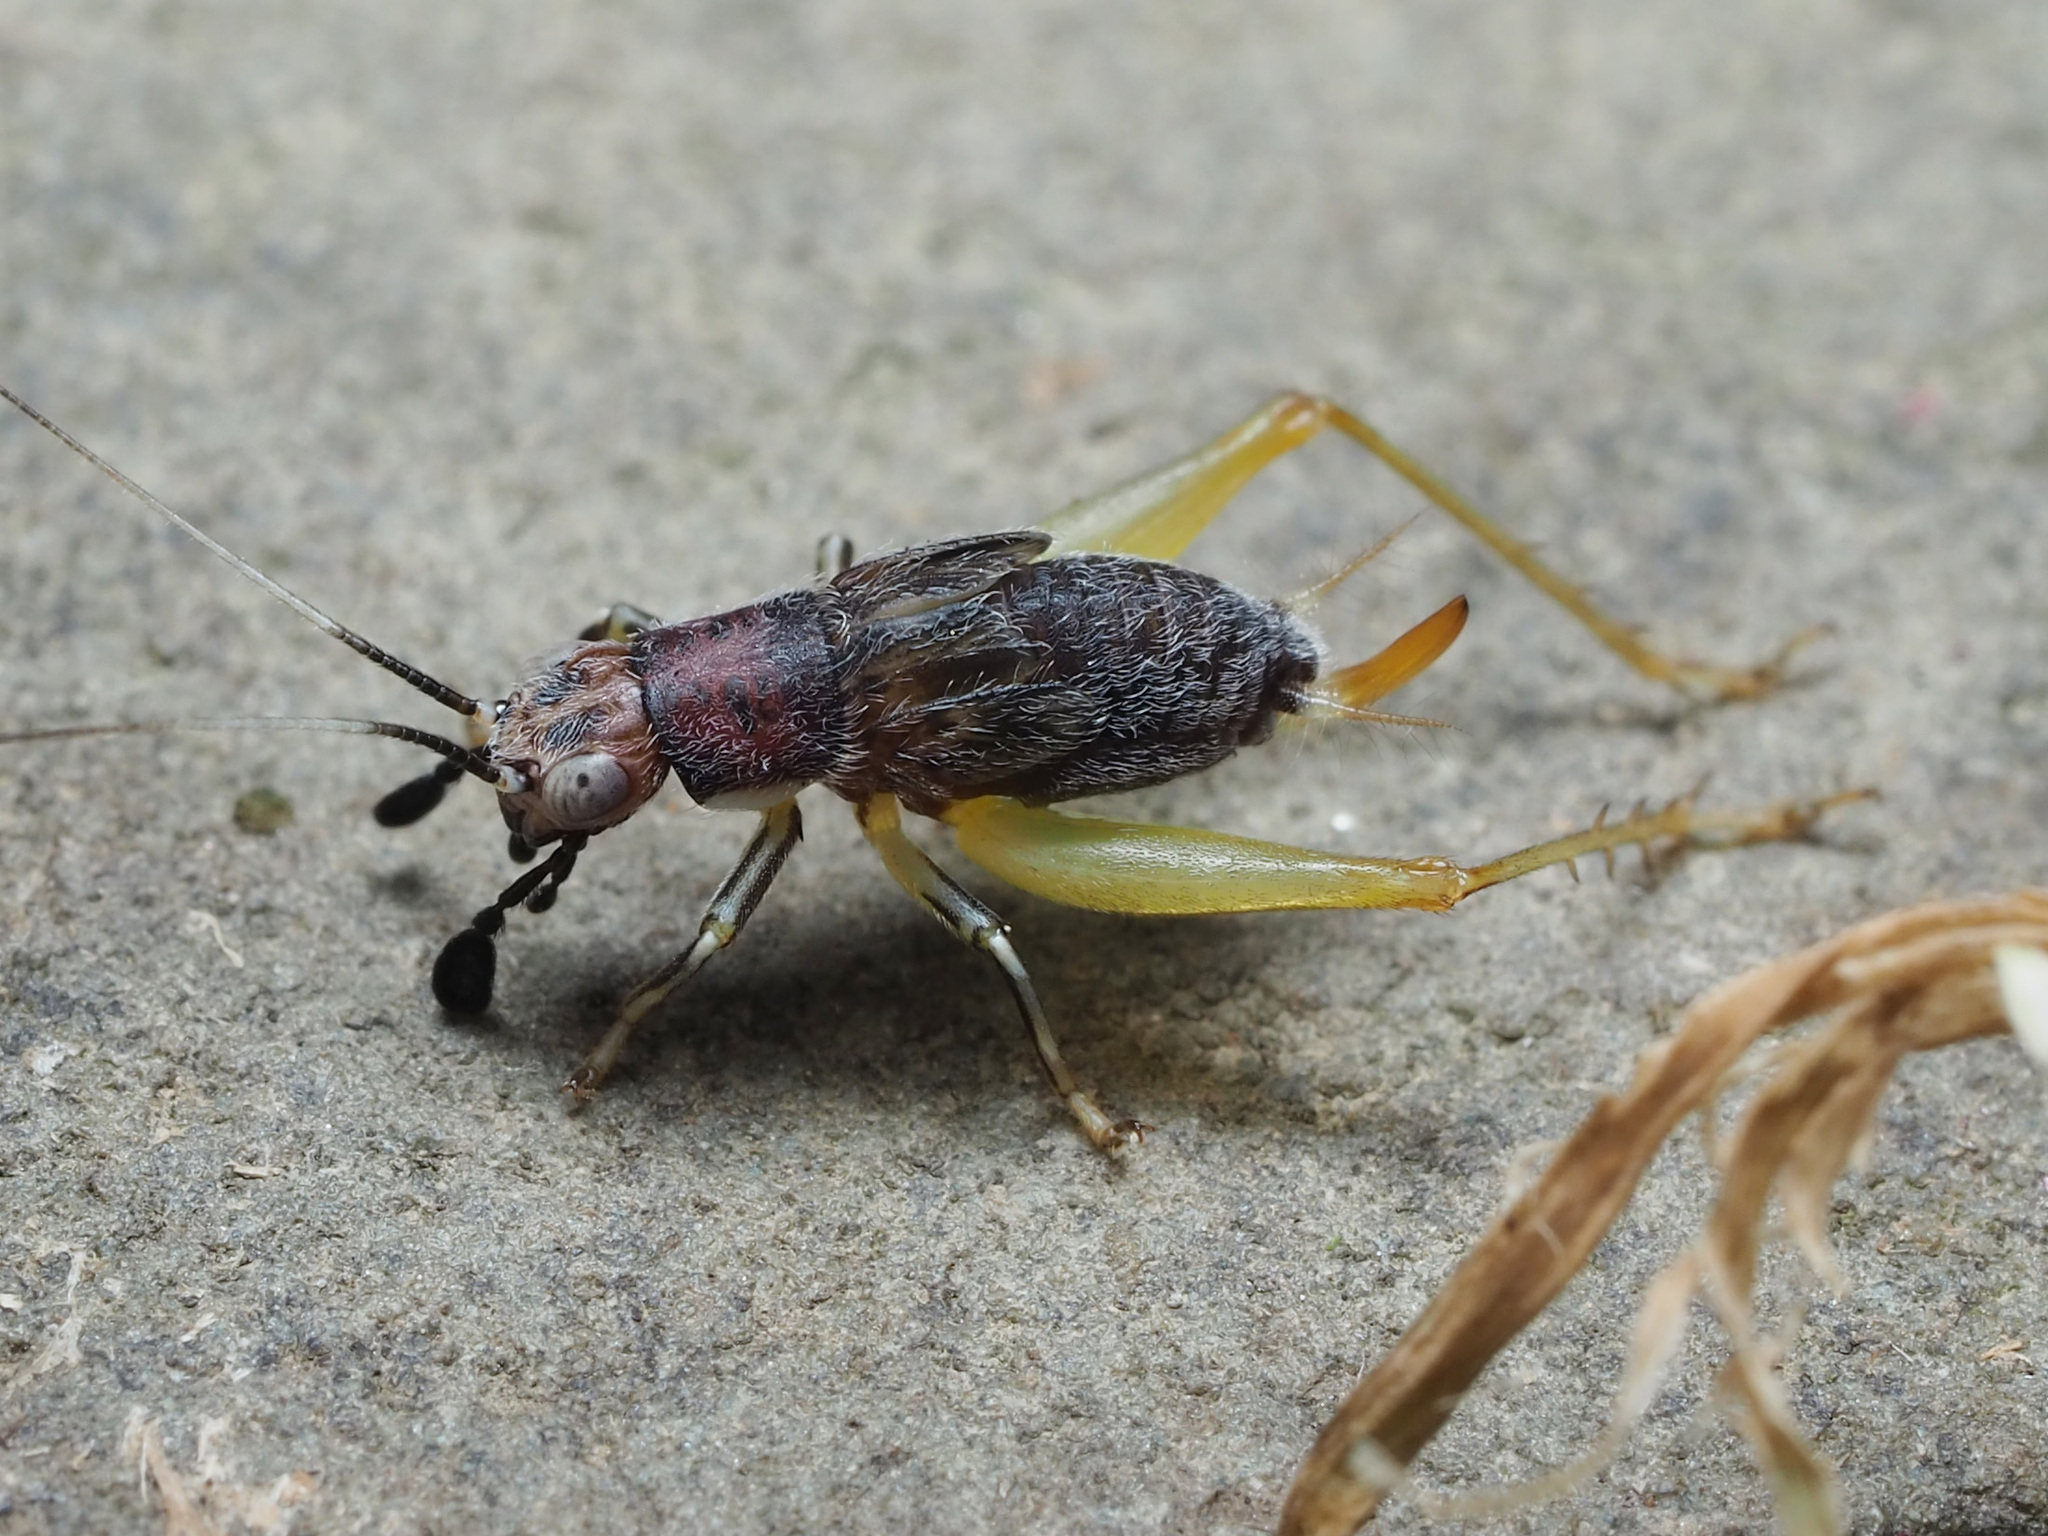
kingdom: Animalia
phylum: Arthropoda
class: Insecta
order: Orthoptera
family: Trigonidiidae
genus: Phyllopalpus
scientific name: Phyllopalpus pulchellus
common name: Handsome trig
